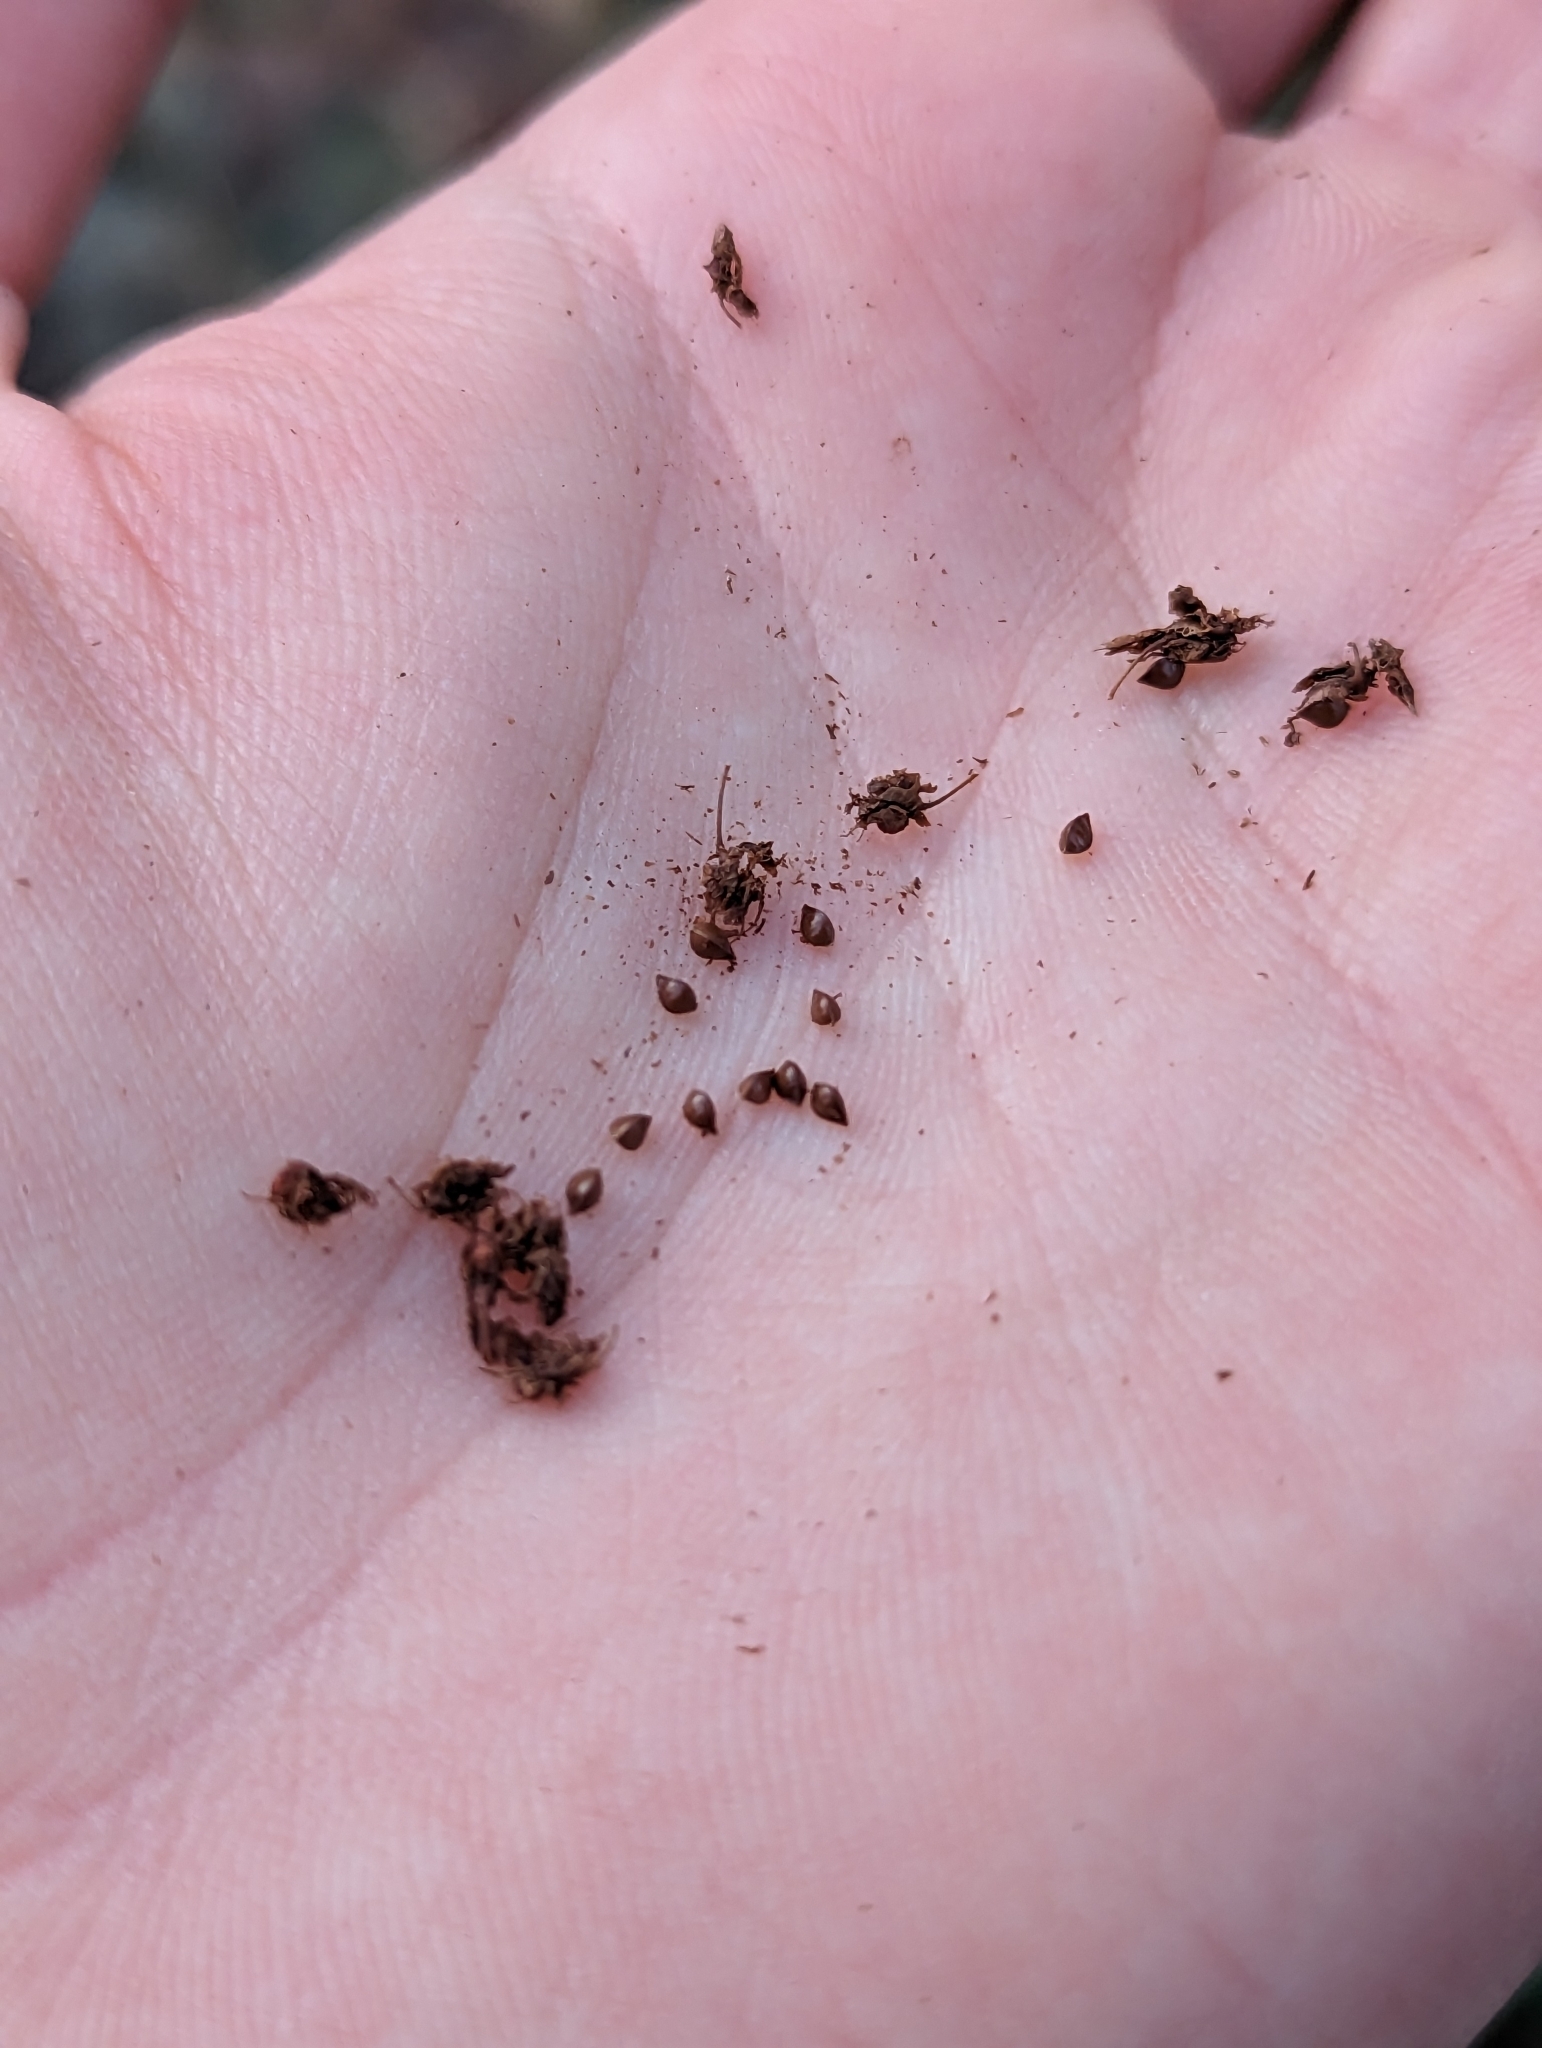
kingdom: Plantae
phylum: Tracheophyta
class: Magnoliopsida
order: Caryophyllales
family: Polygonaceae
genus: Rumex
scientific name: Rumex obtusifolius
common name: Bitter dock
